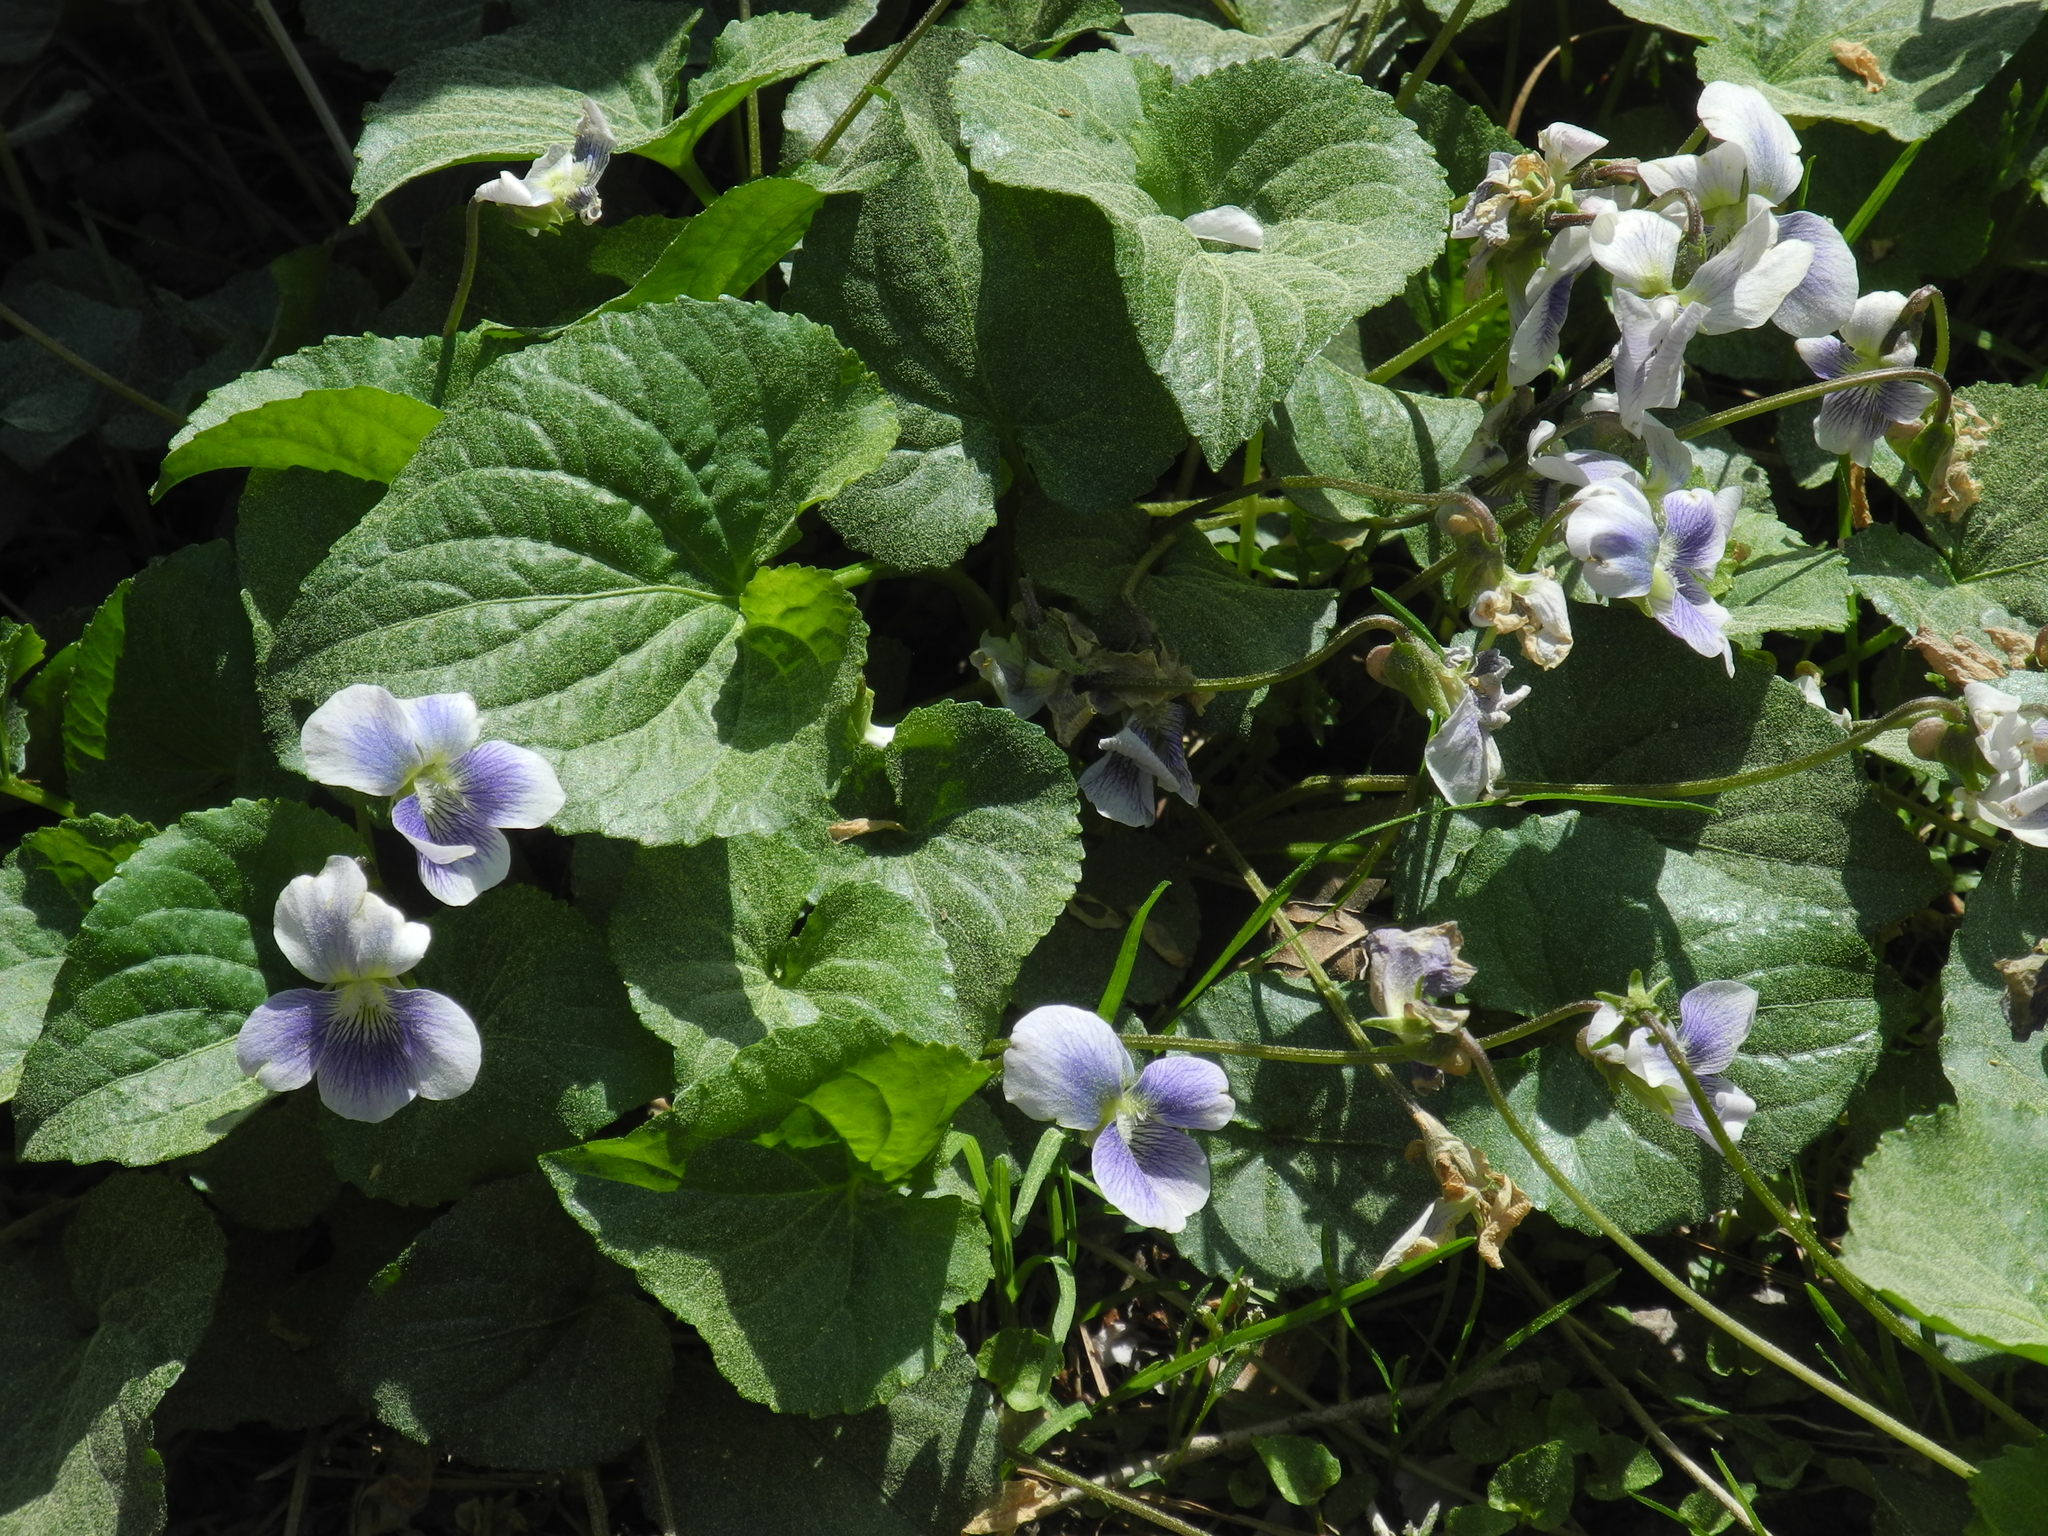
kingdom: Plantae
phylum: Tracheophyta
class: Magnoliopsida
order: Malpighiales
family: Violaceae
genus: Viola
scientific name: Viola sororia
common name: Dooryard violet
